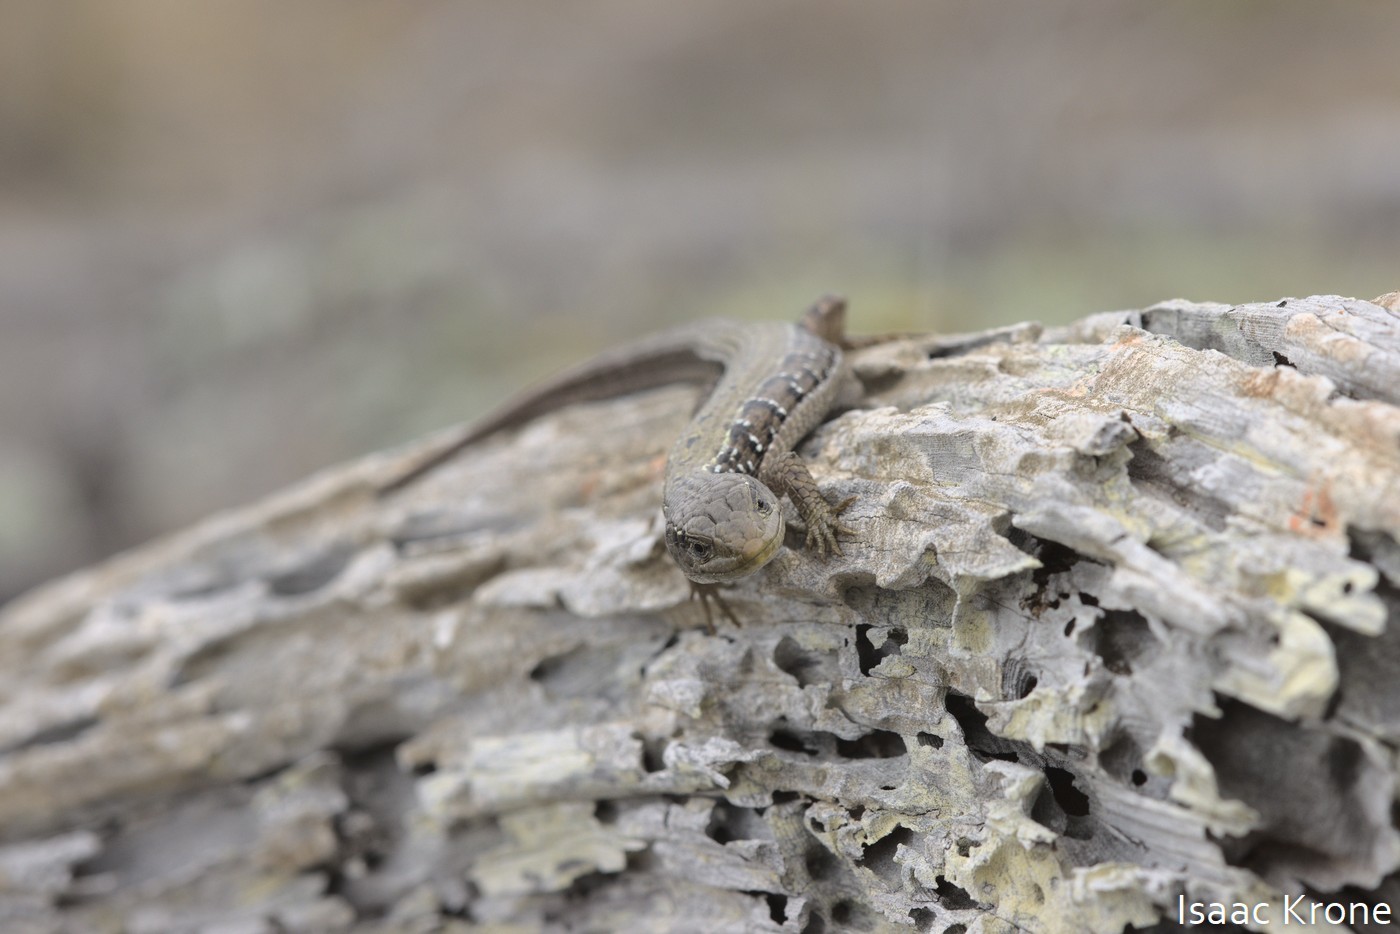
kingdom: Animalia
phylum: Chordata
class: Squamata
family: Anguidae
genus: Elgaria
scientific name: Elgaria coerulea
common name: Northern alligator lizard
